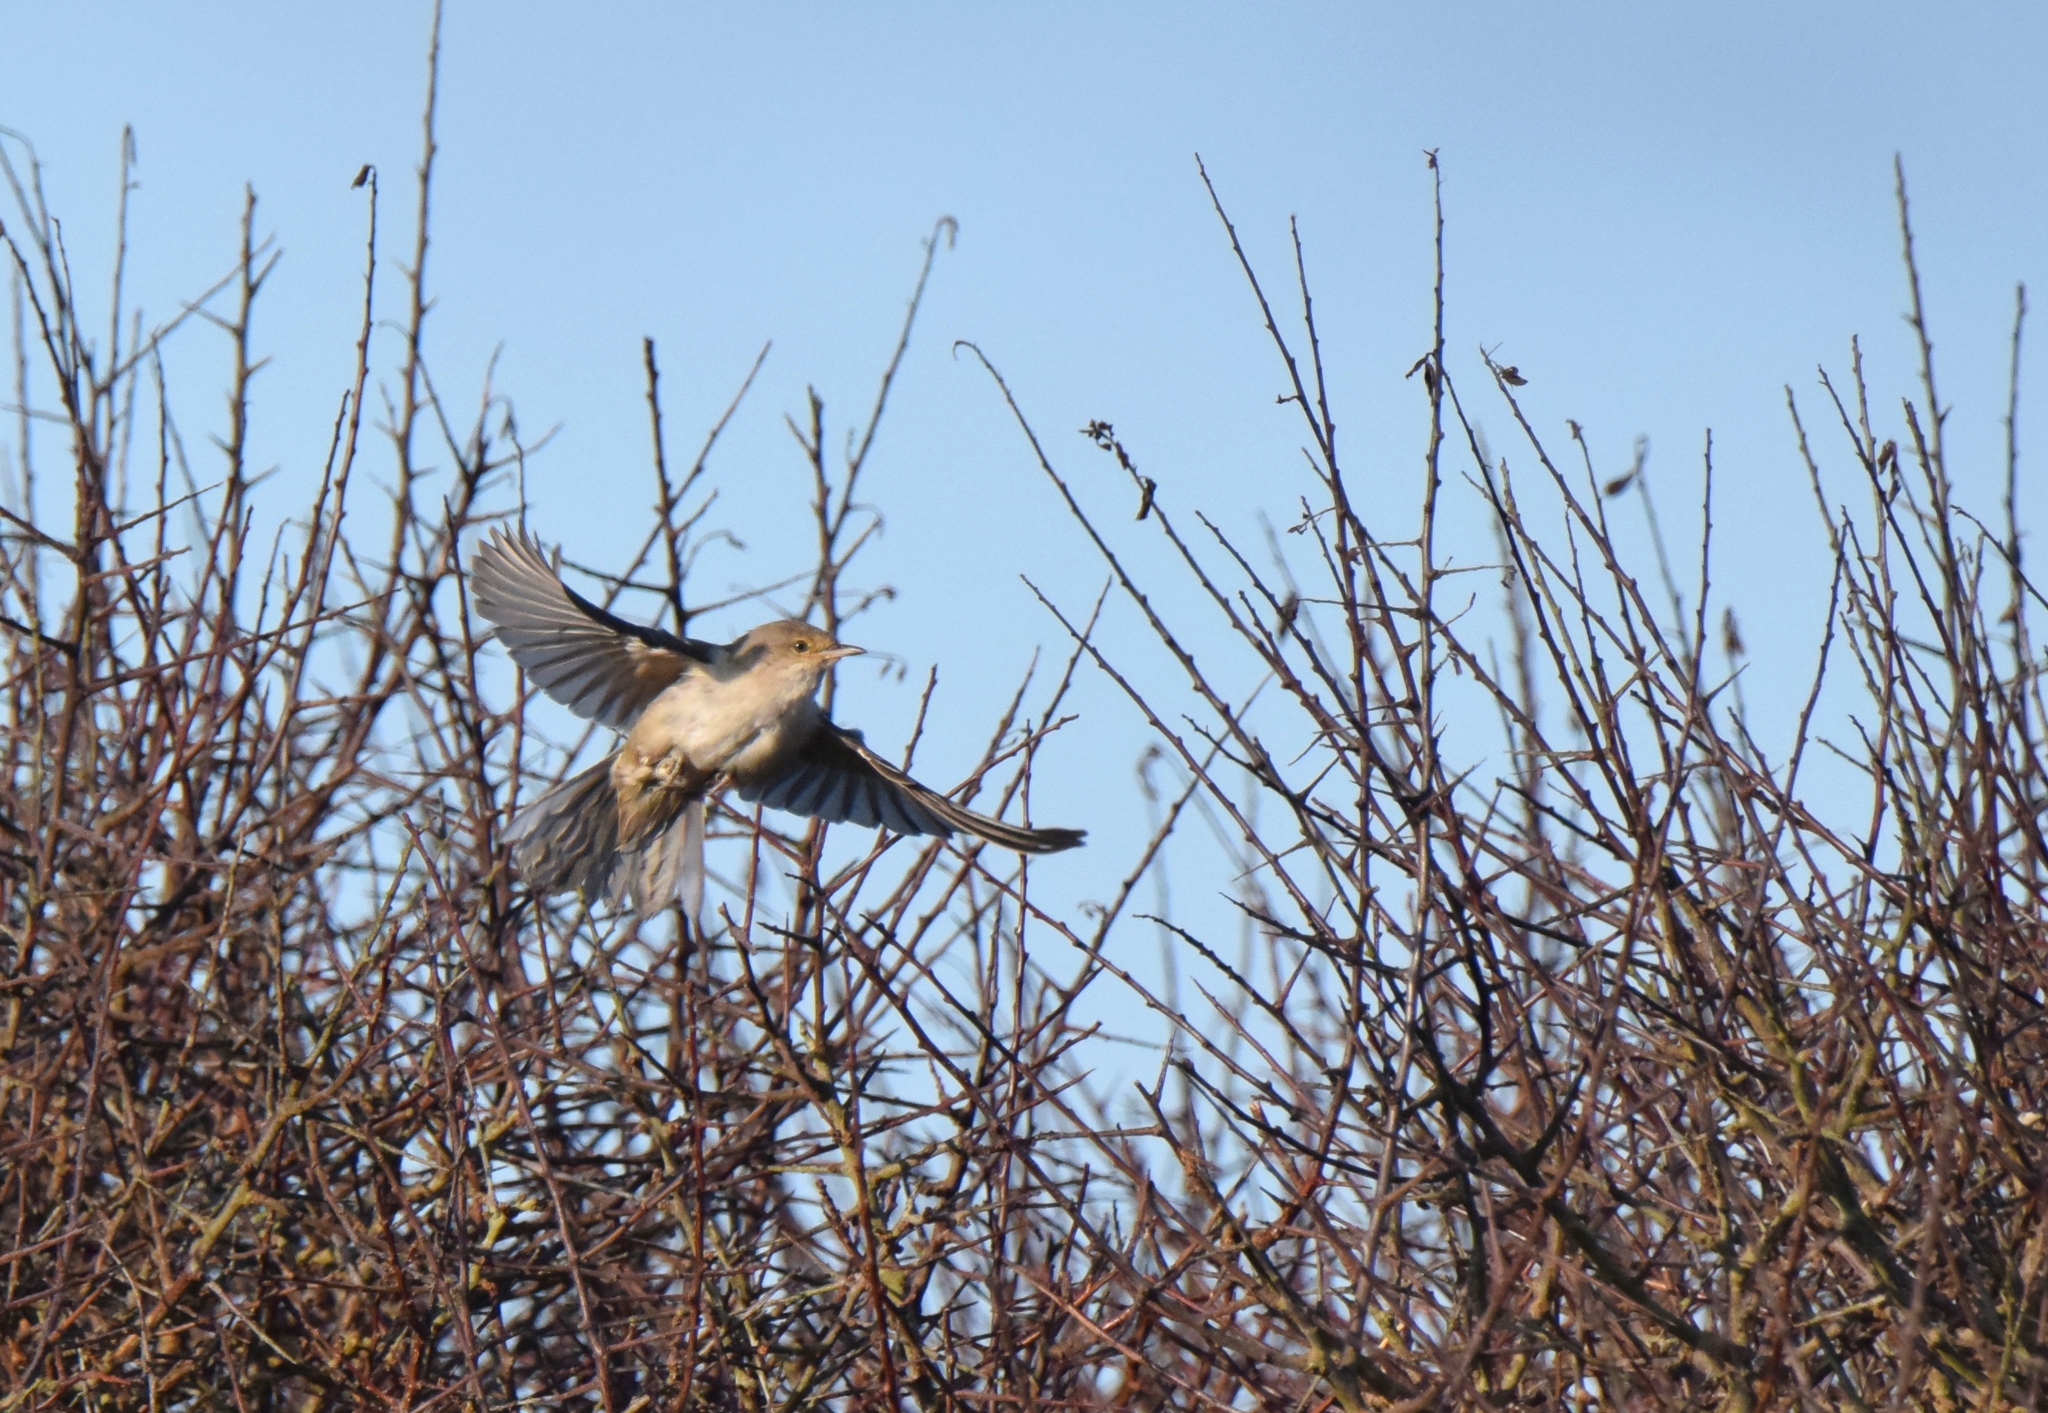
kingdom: Animalia
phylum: Chordata
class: Aves
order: Passeriformes
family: Sylviidae
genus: Sylvia
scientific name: Sylvia nisoria
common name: Barred warbler
